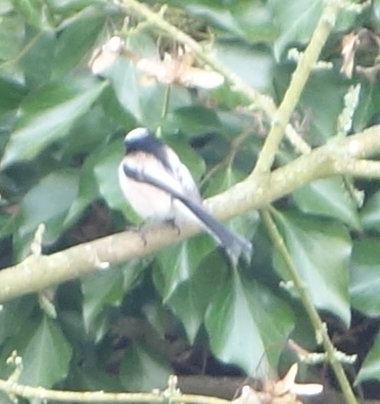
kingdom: Animalia
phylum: Chordata
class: Aves
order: Passeriformes
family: Aegithalidae
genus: Aegithalos
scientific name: Aegithalos caudatus
